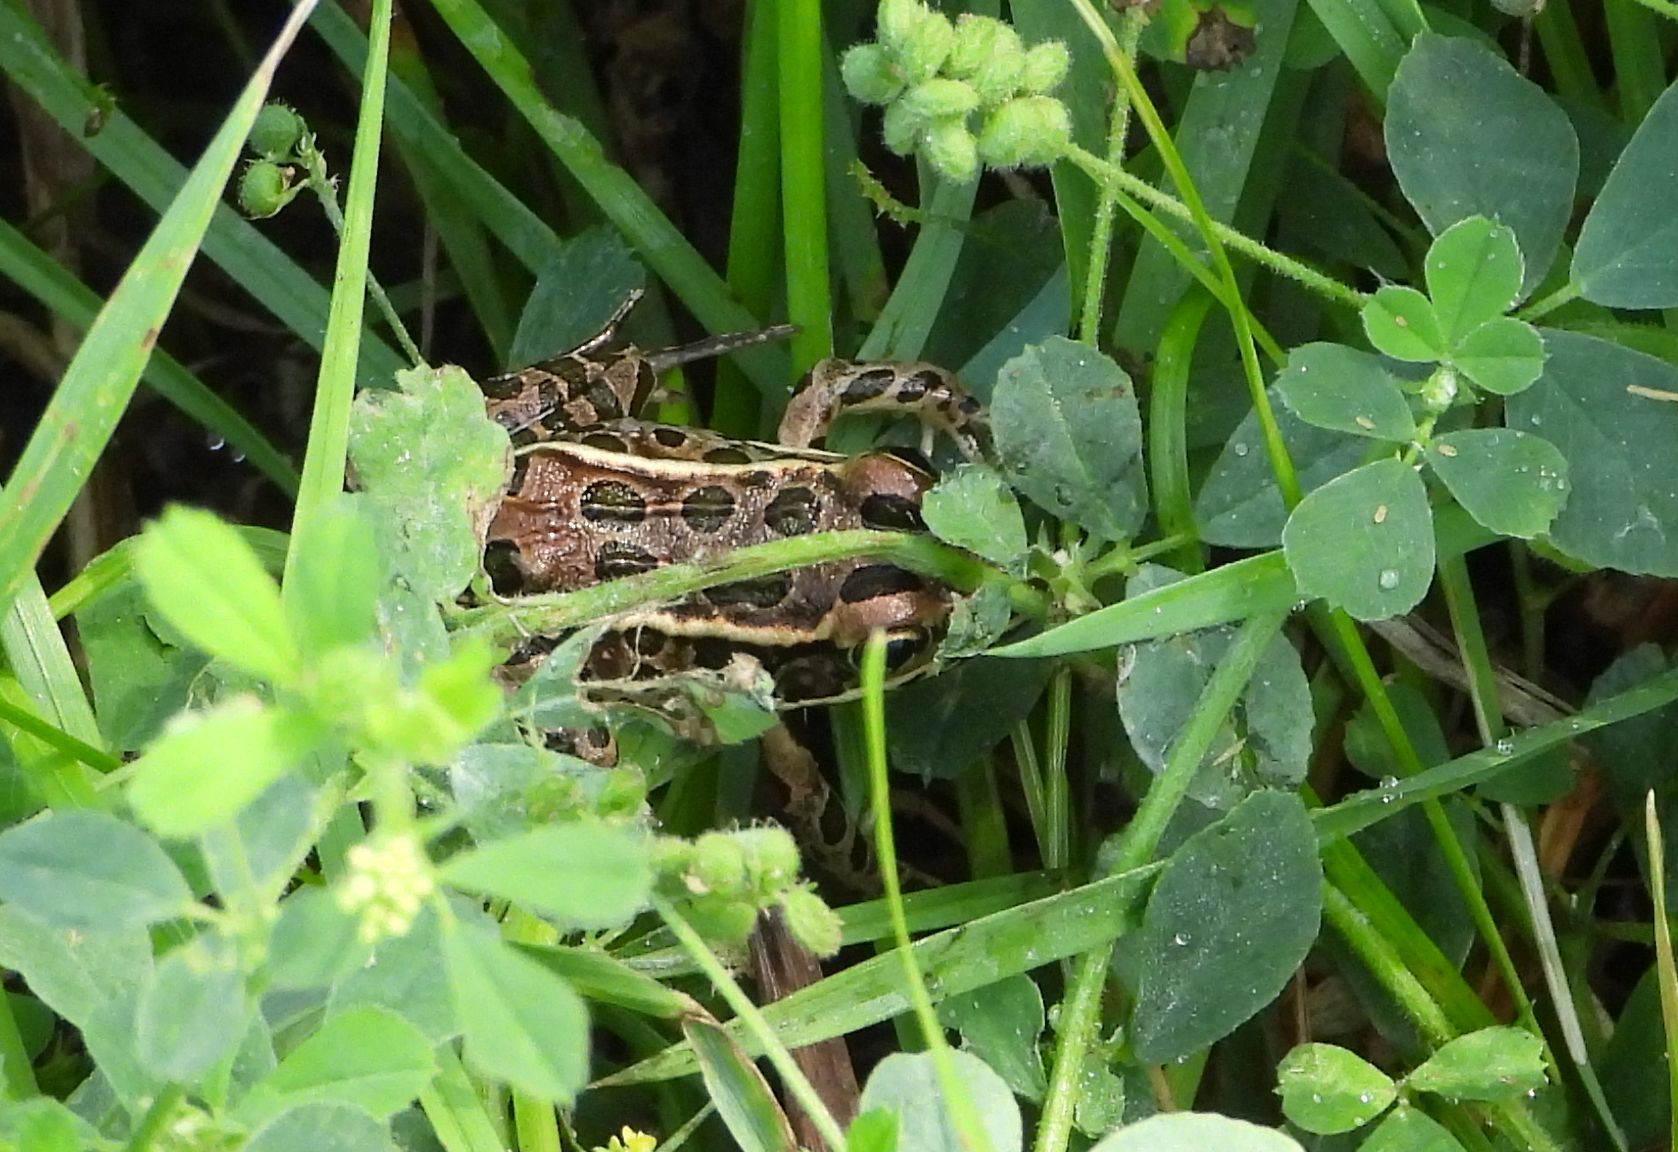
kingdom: Animalia
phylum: Chordata
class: Amphibia
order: Anura
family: Ranidae
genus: Lithobates
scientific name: Lithobates pipiens
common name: Northern leopard frog
